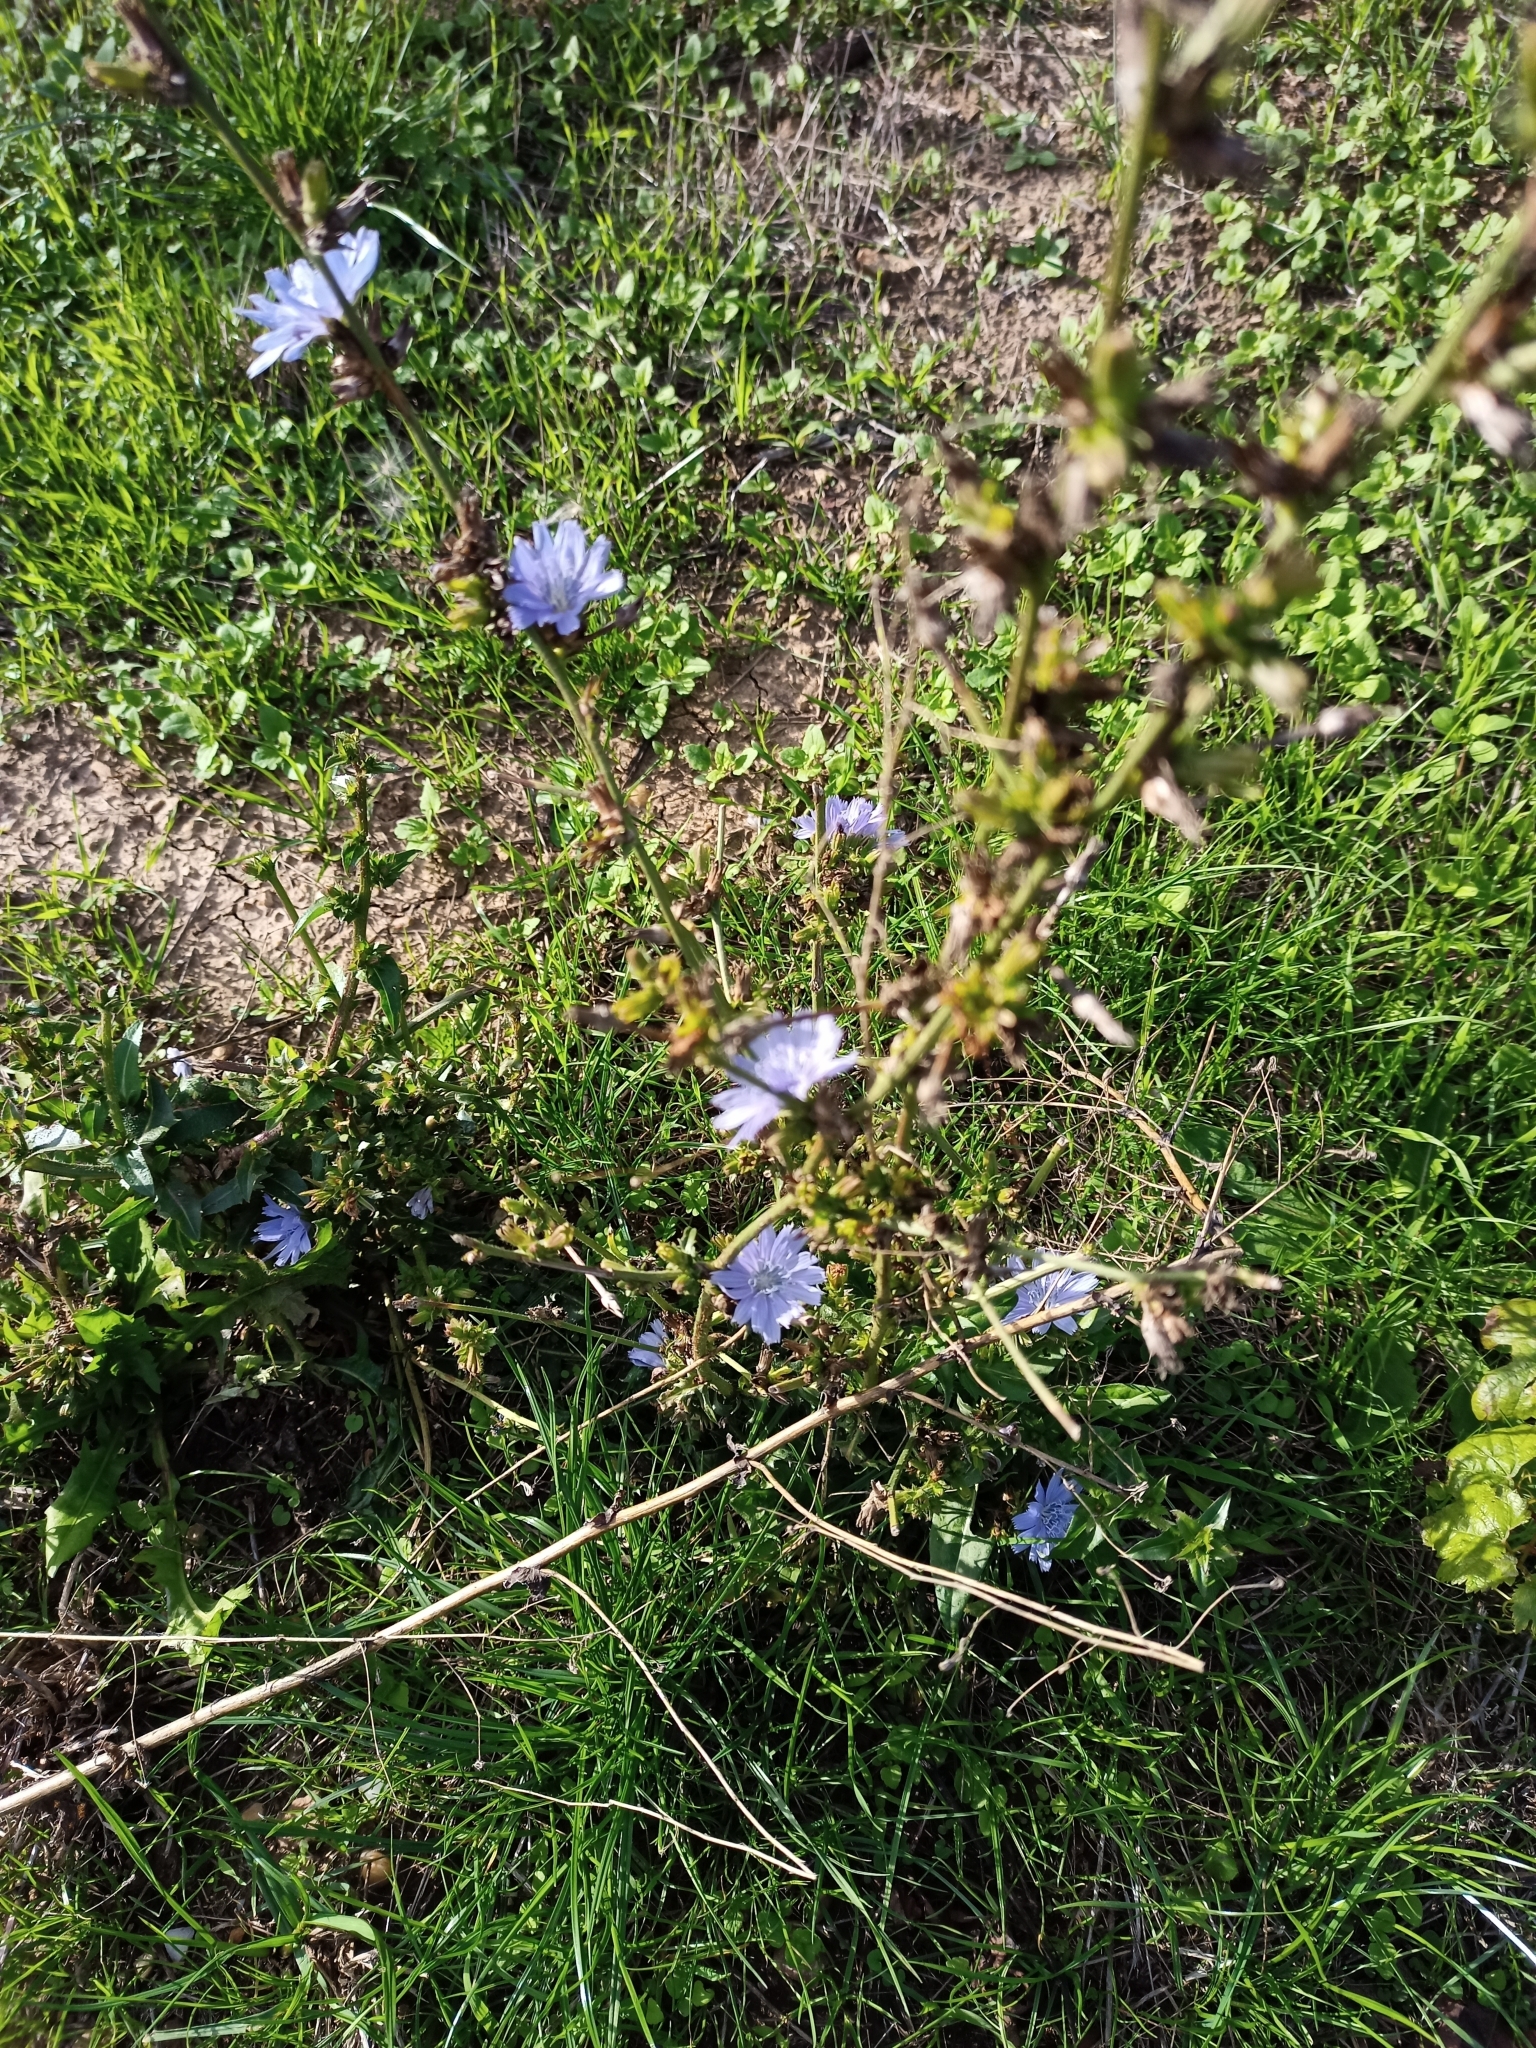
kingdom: Plantae
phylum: Tracheophyta
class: Magnoliopsida
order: Asterales
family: Asteraceae
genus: Cichorium
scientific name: Cichorium intybus
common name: Chicory
